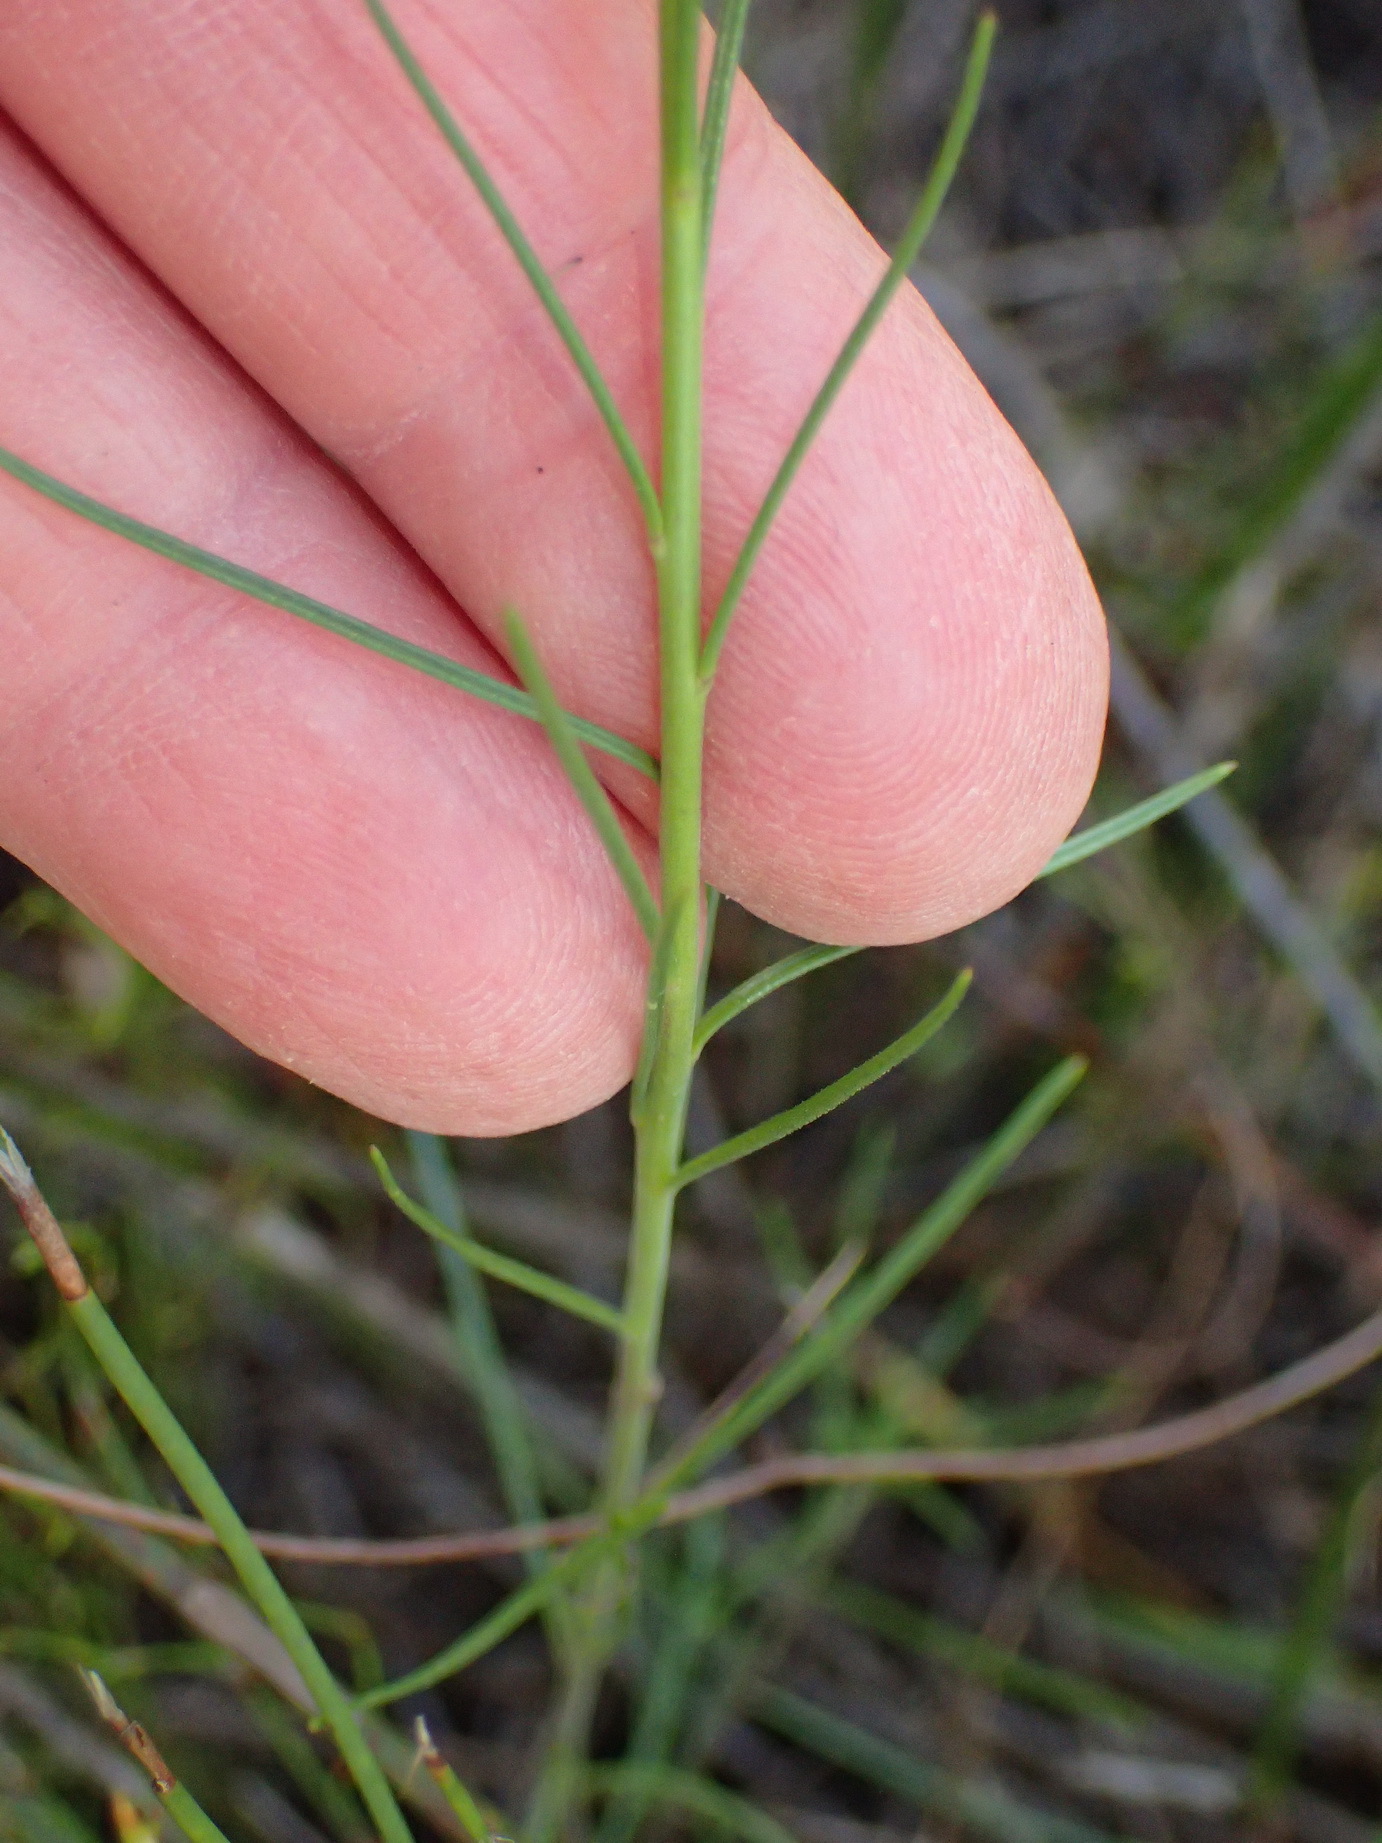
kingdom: Plantae
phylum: Tracheophyta
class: Magnoliopsida
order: Brassicales
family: Brassicaceae
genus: Heliophila
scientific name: Heliophila subulata
